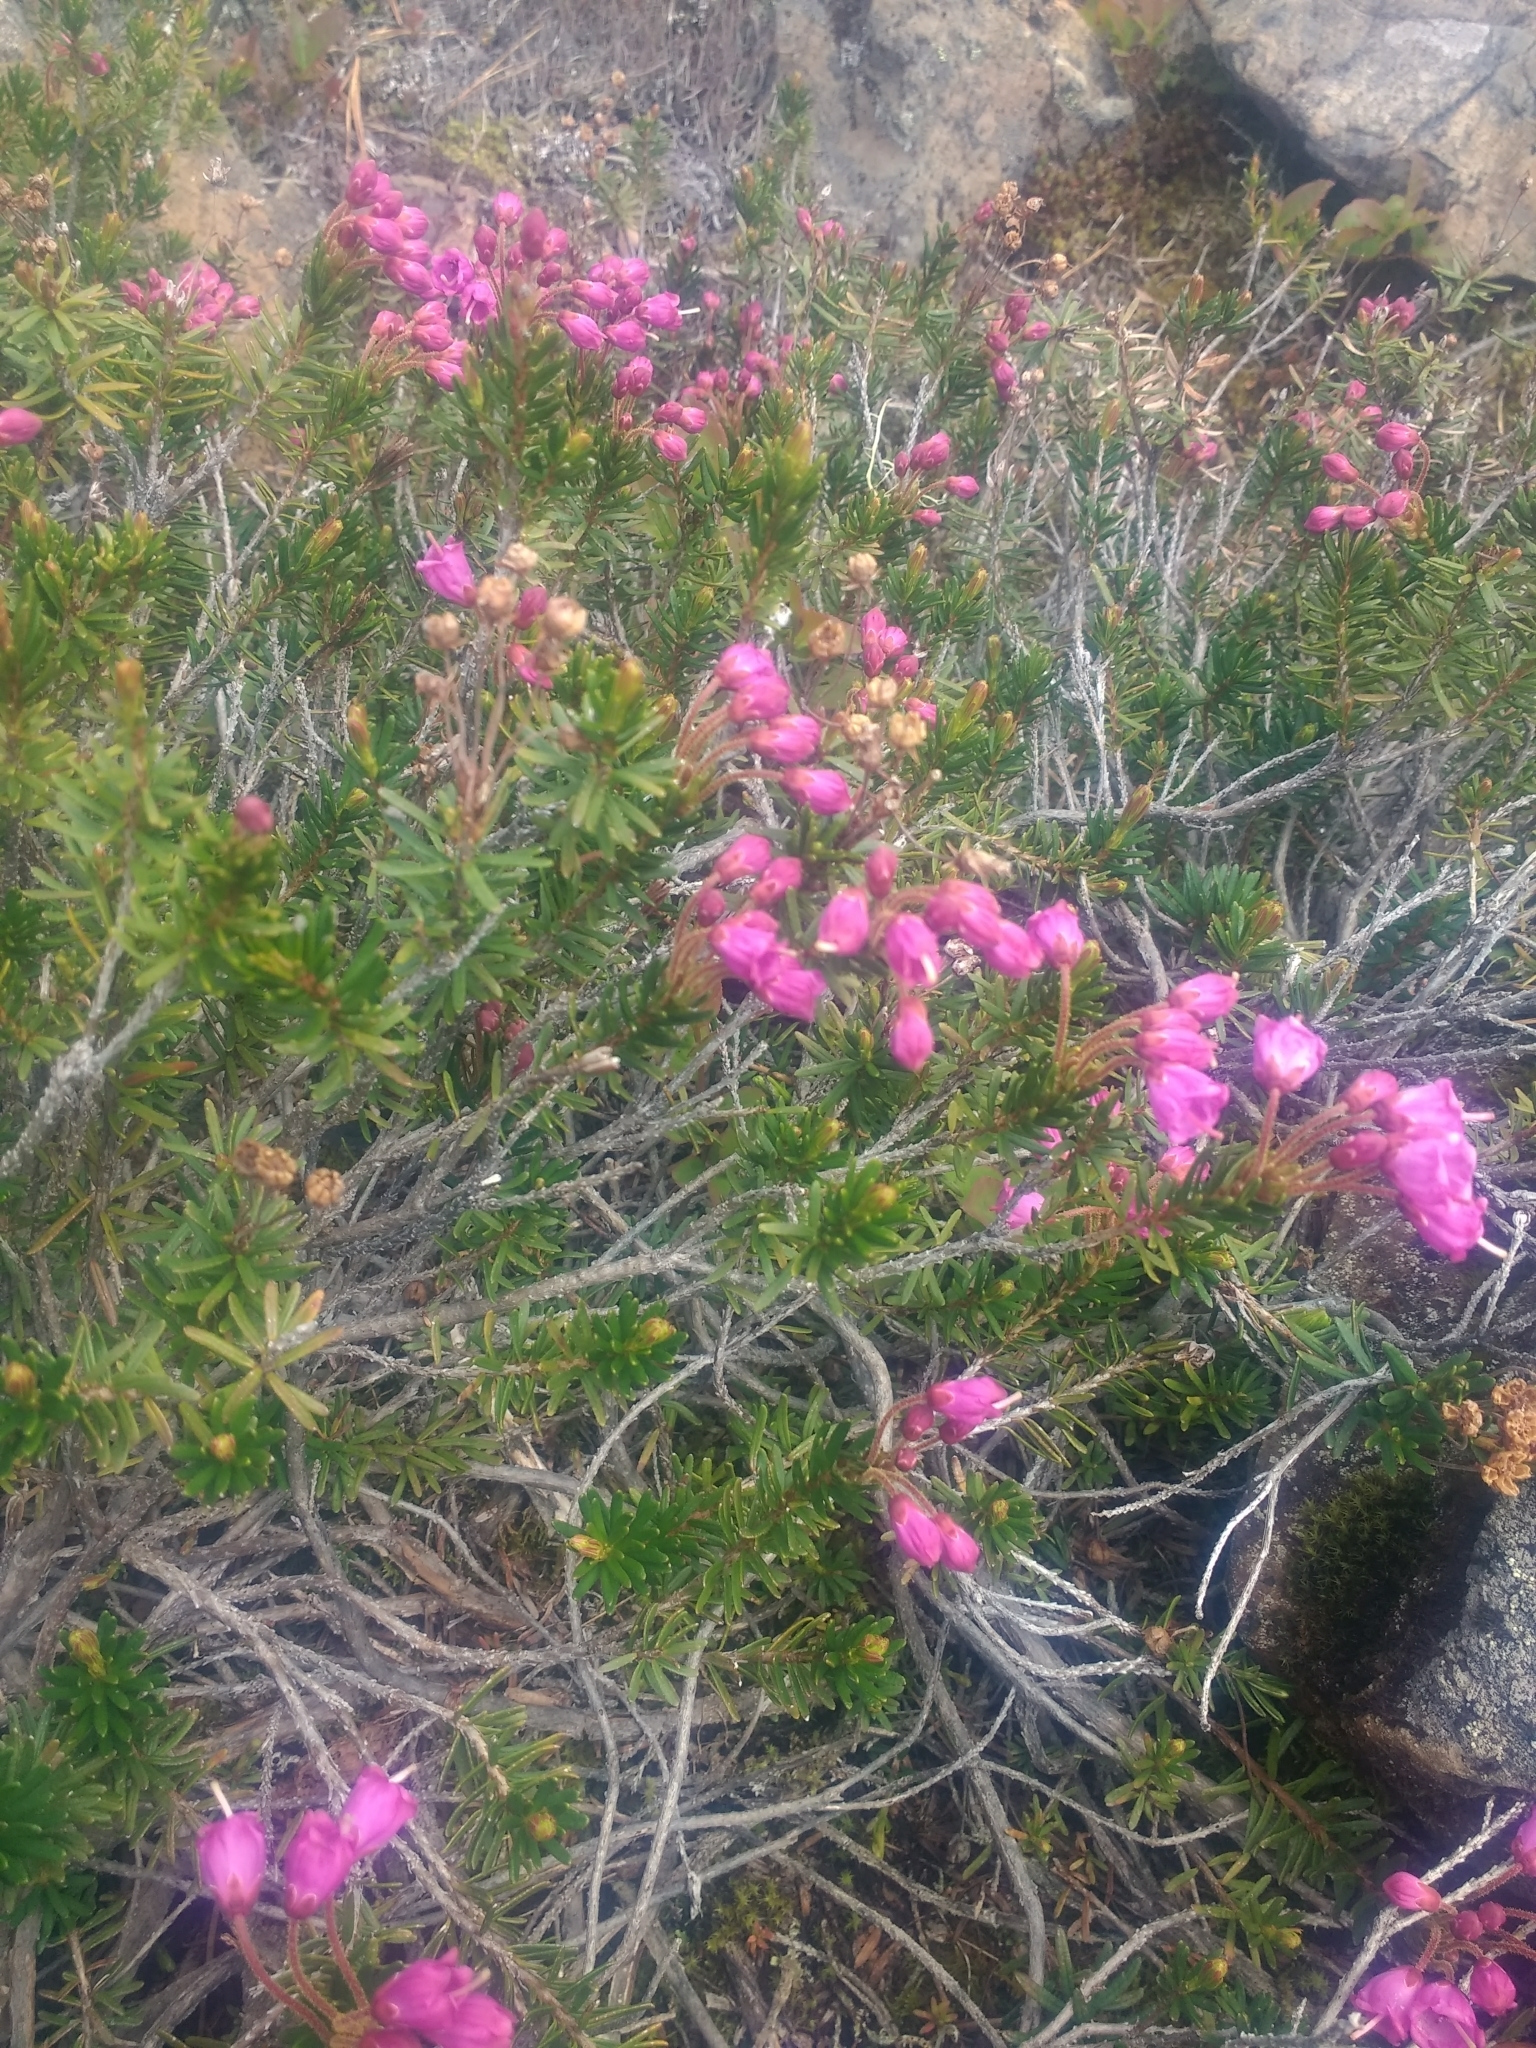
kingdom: Plantae
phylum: Tracheophyta
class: Magnoliopsida
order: Ericales
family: Ericaceae
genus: Phyllodoce
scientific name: Phyllodoce empetriformis
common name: Pink mountain heather
